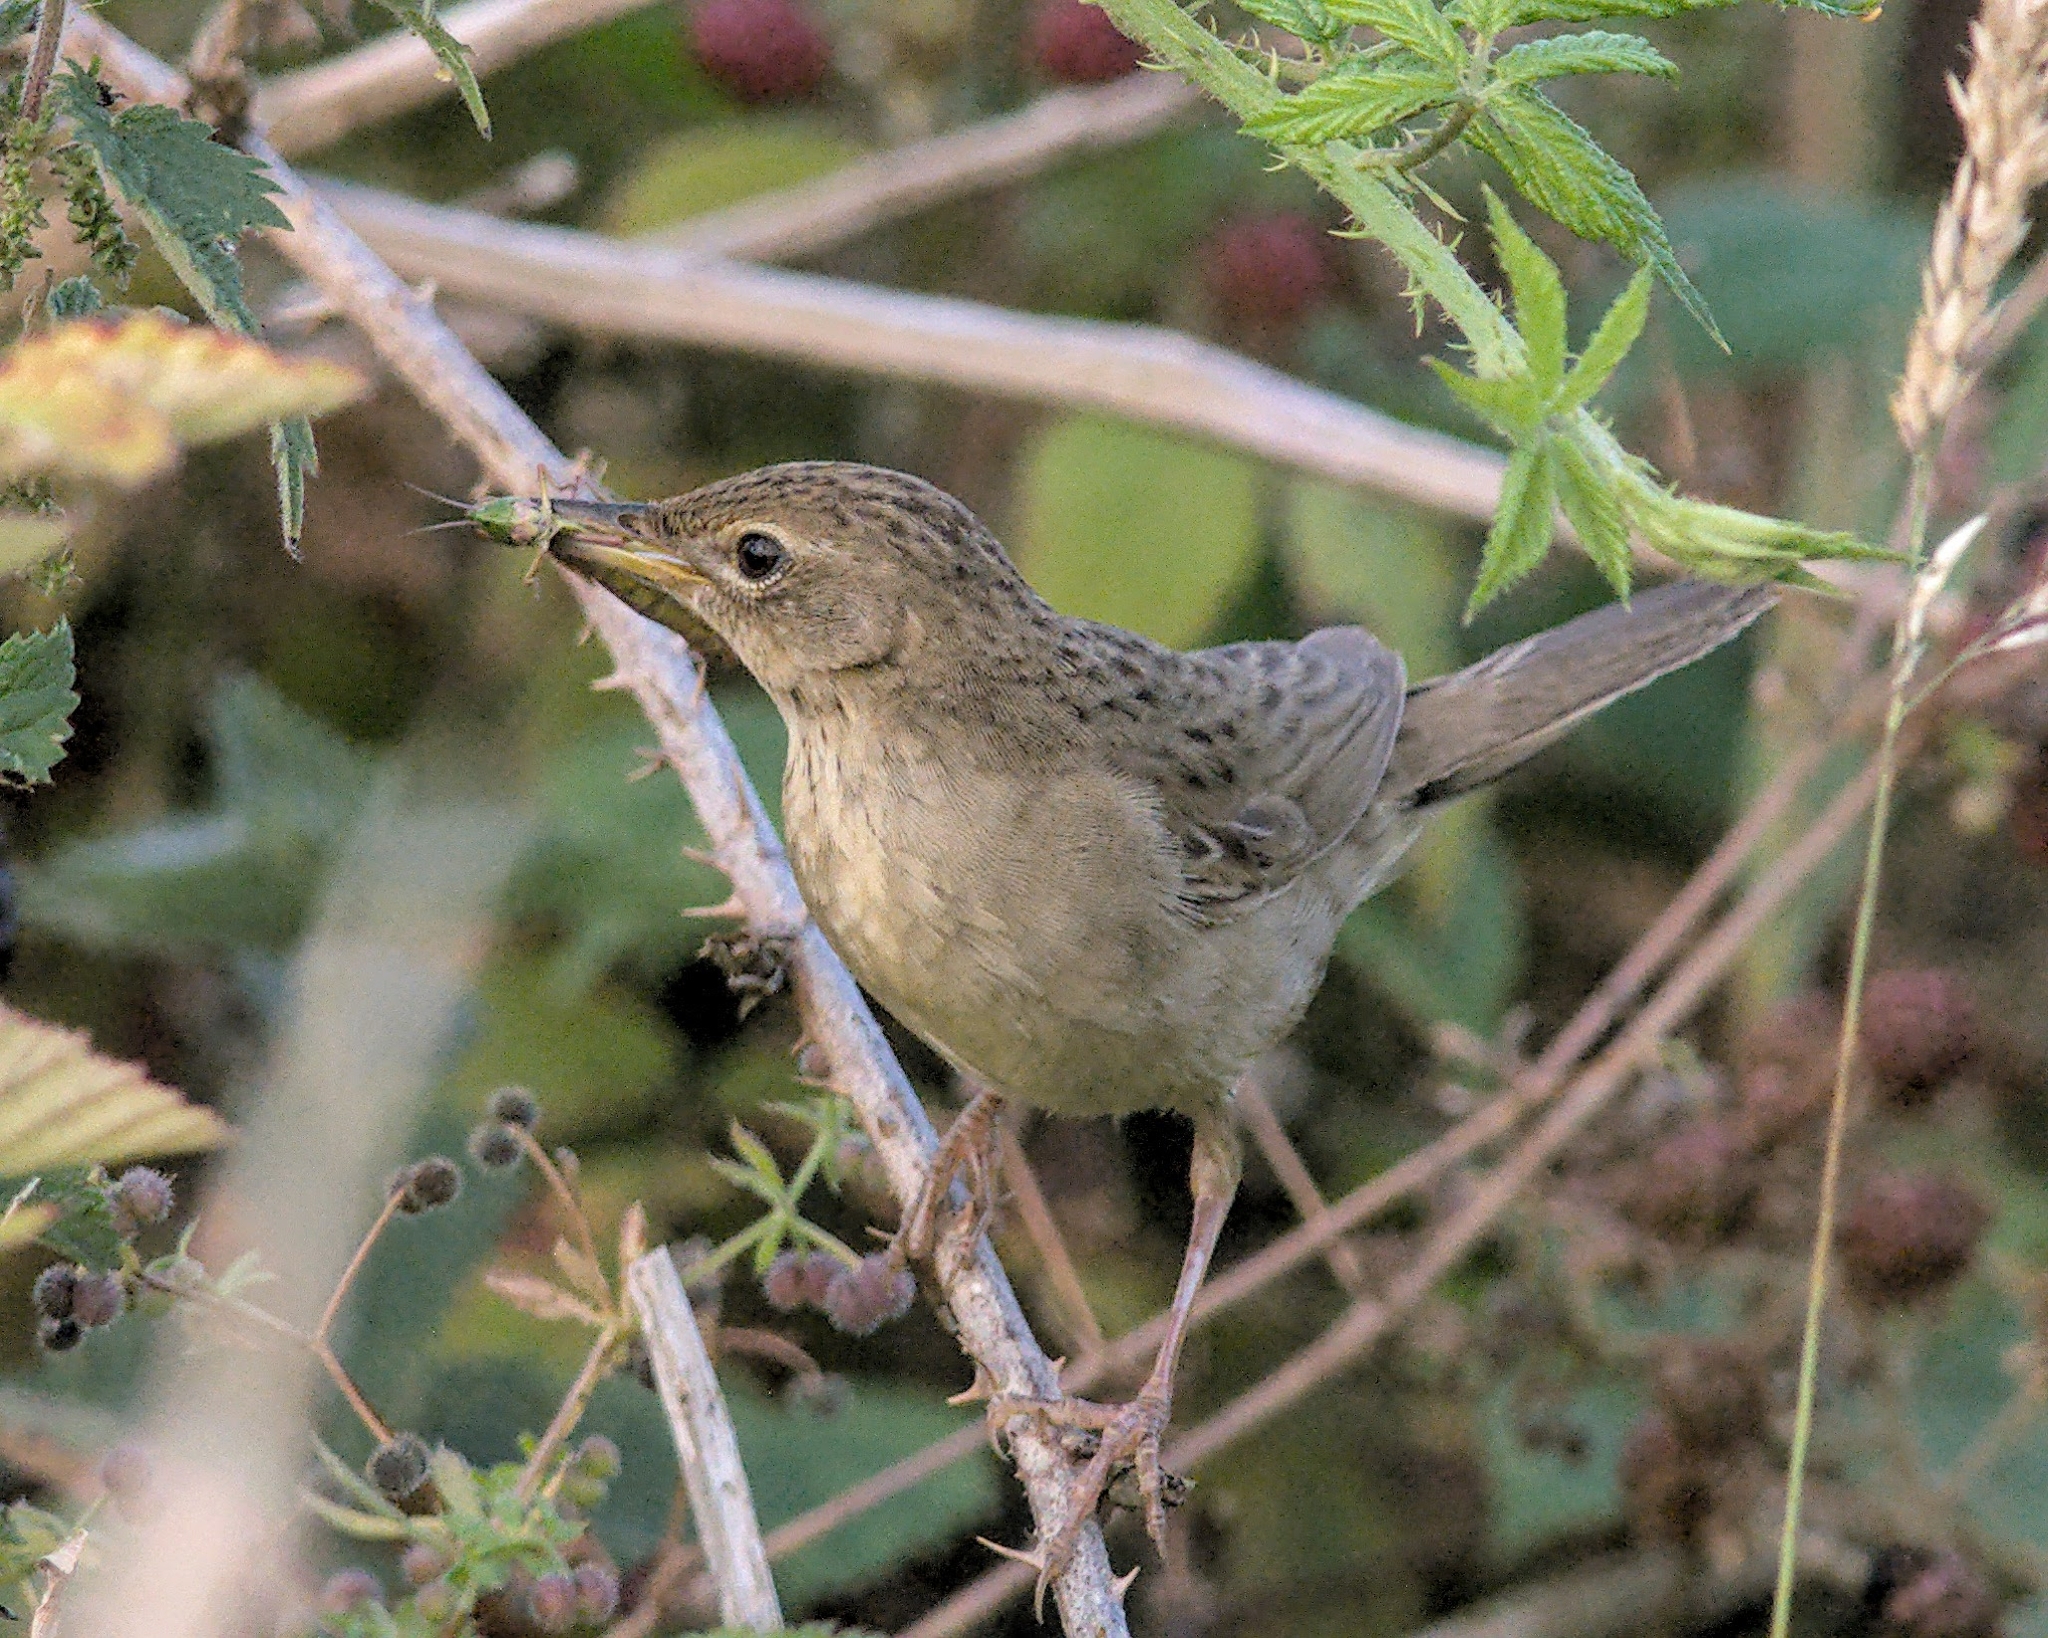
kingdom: Animalia
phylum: Chordata
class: Aves
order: Passeriformes
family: Locustellidae
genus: Locustella
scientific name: Locustella naevia
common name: Common grasshopper warbler
